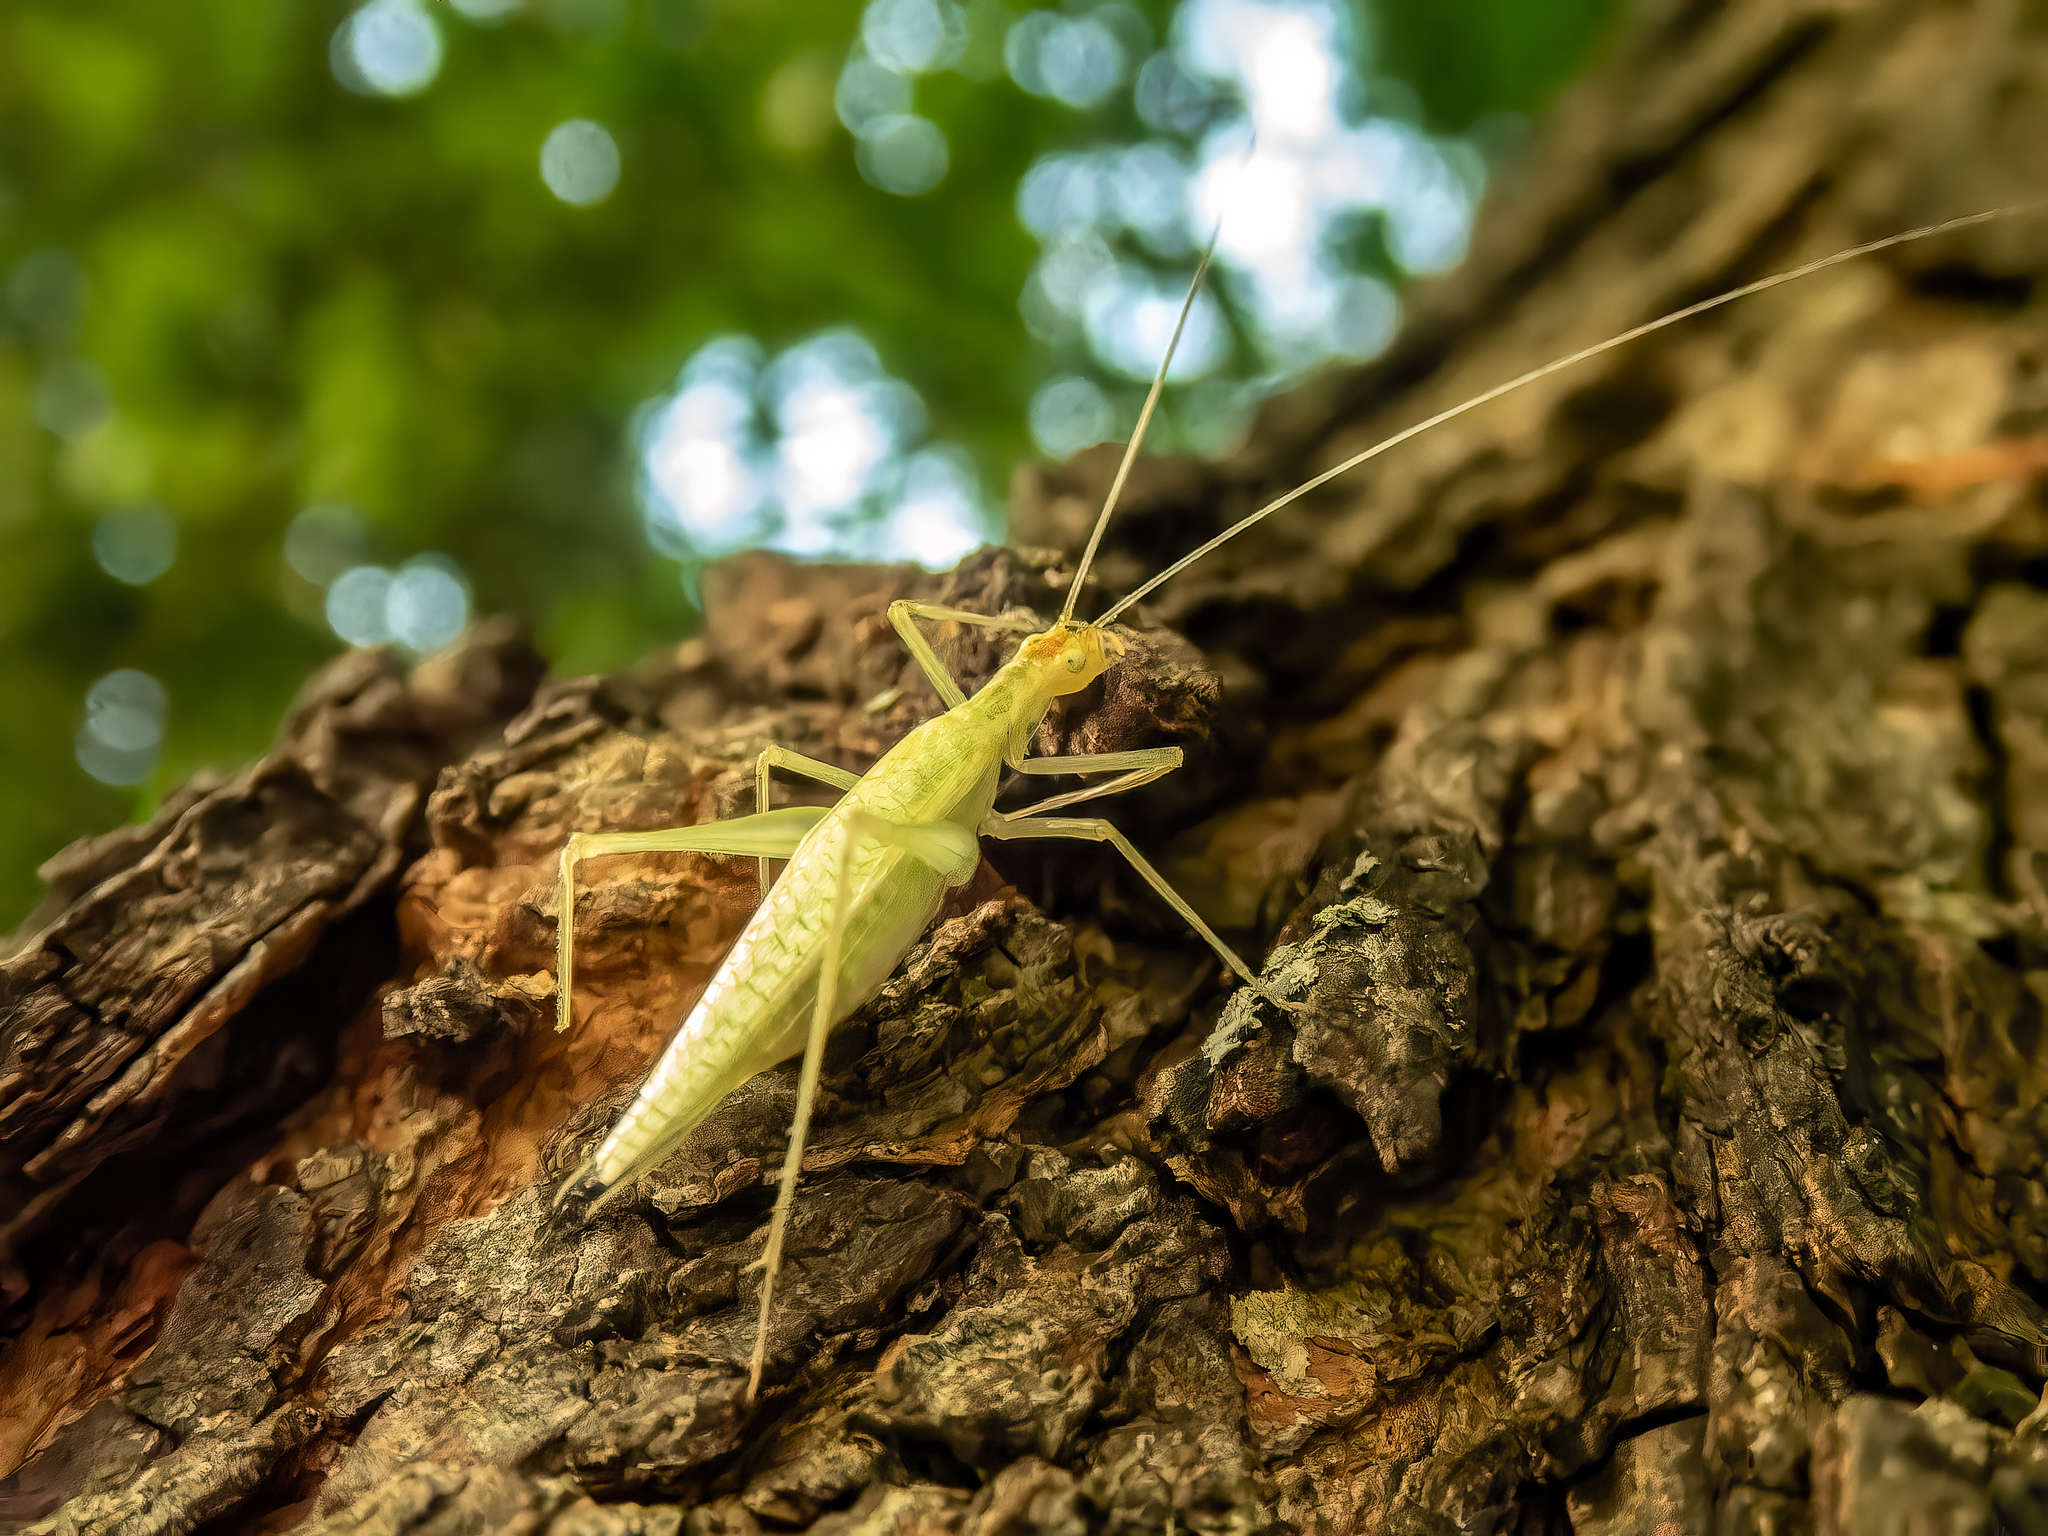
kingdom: Animalia
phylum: Arthropoda
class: Insecta
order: Orthoptera
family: Gryllidae
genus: Oecanthus
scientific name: Oecanthus niveus
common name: Narrow-winged tree cricket
